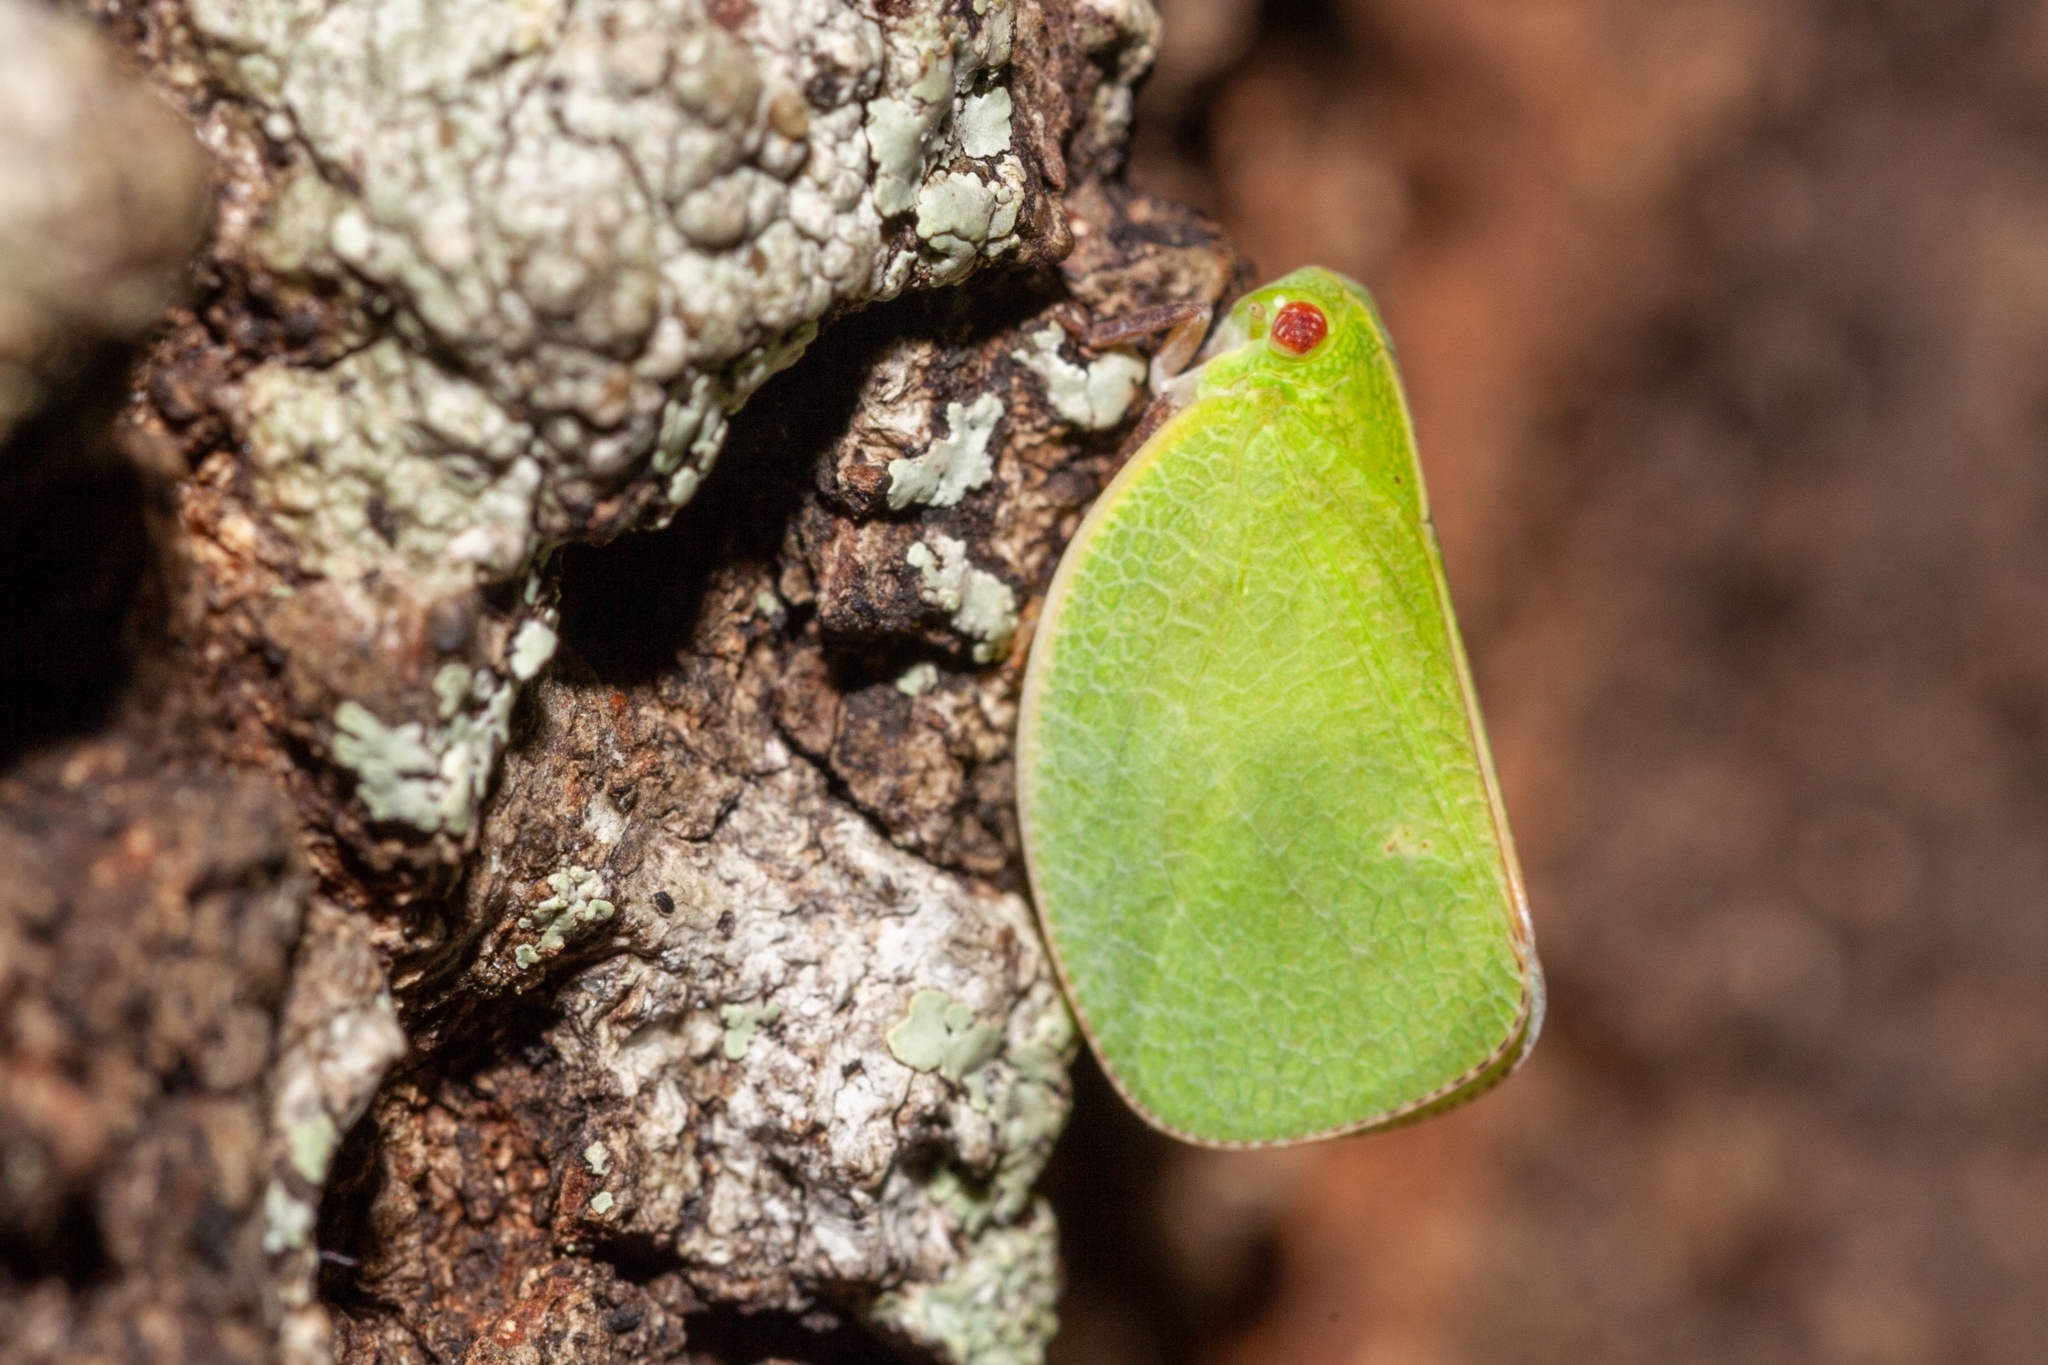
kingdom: Animalia
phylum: Arthropoda
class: Insecta
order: Hemiptera
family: Acanaloniidae
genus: Acanalonia
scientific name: Acanalonia servillei
